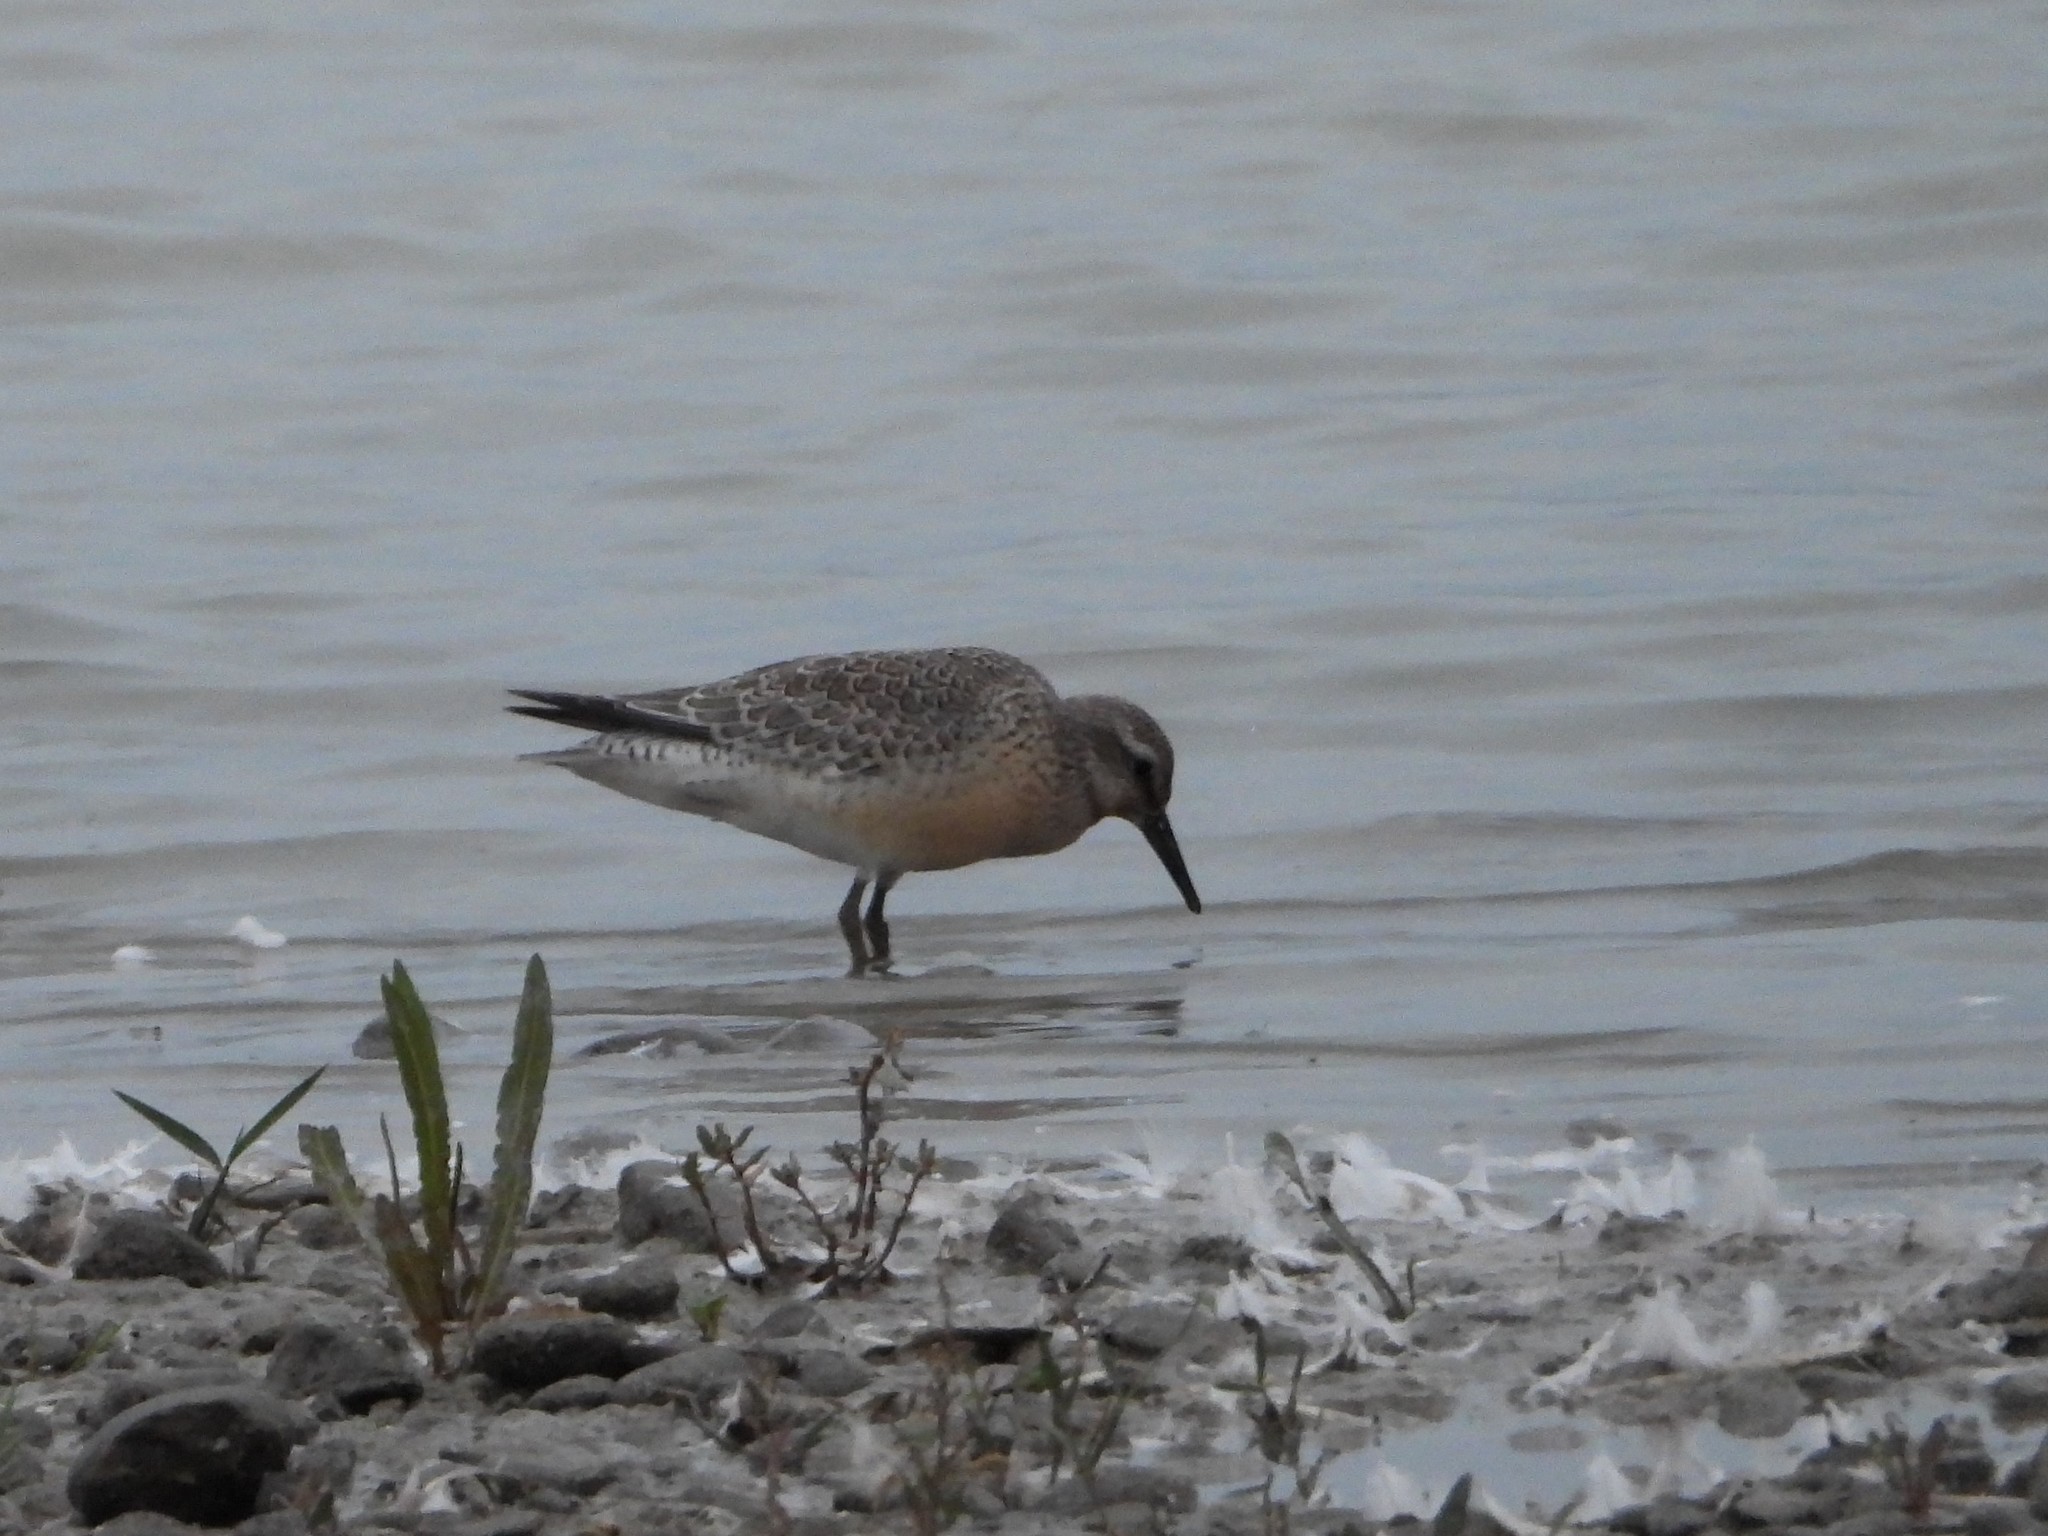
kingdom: Animalia
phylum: Chordata
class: Aves
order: Charadriiformes
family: Scolopacidae
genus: Calidris
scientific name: Calidris canutus
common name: Red knot
